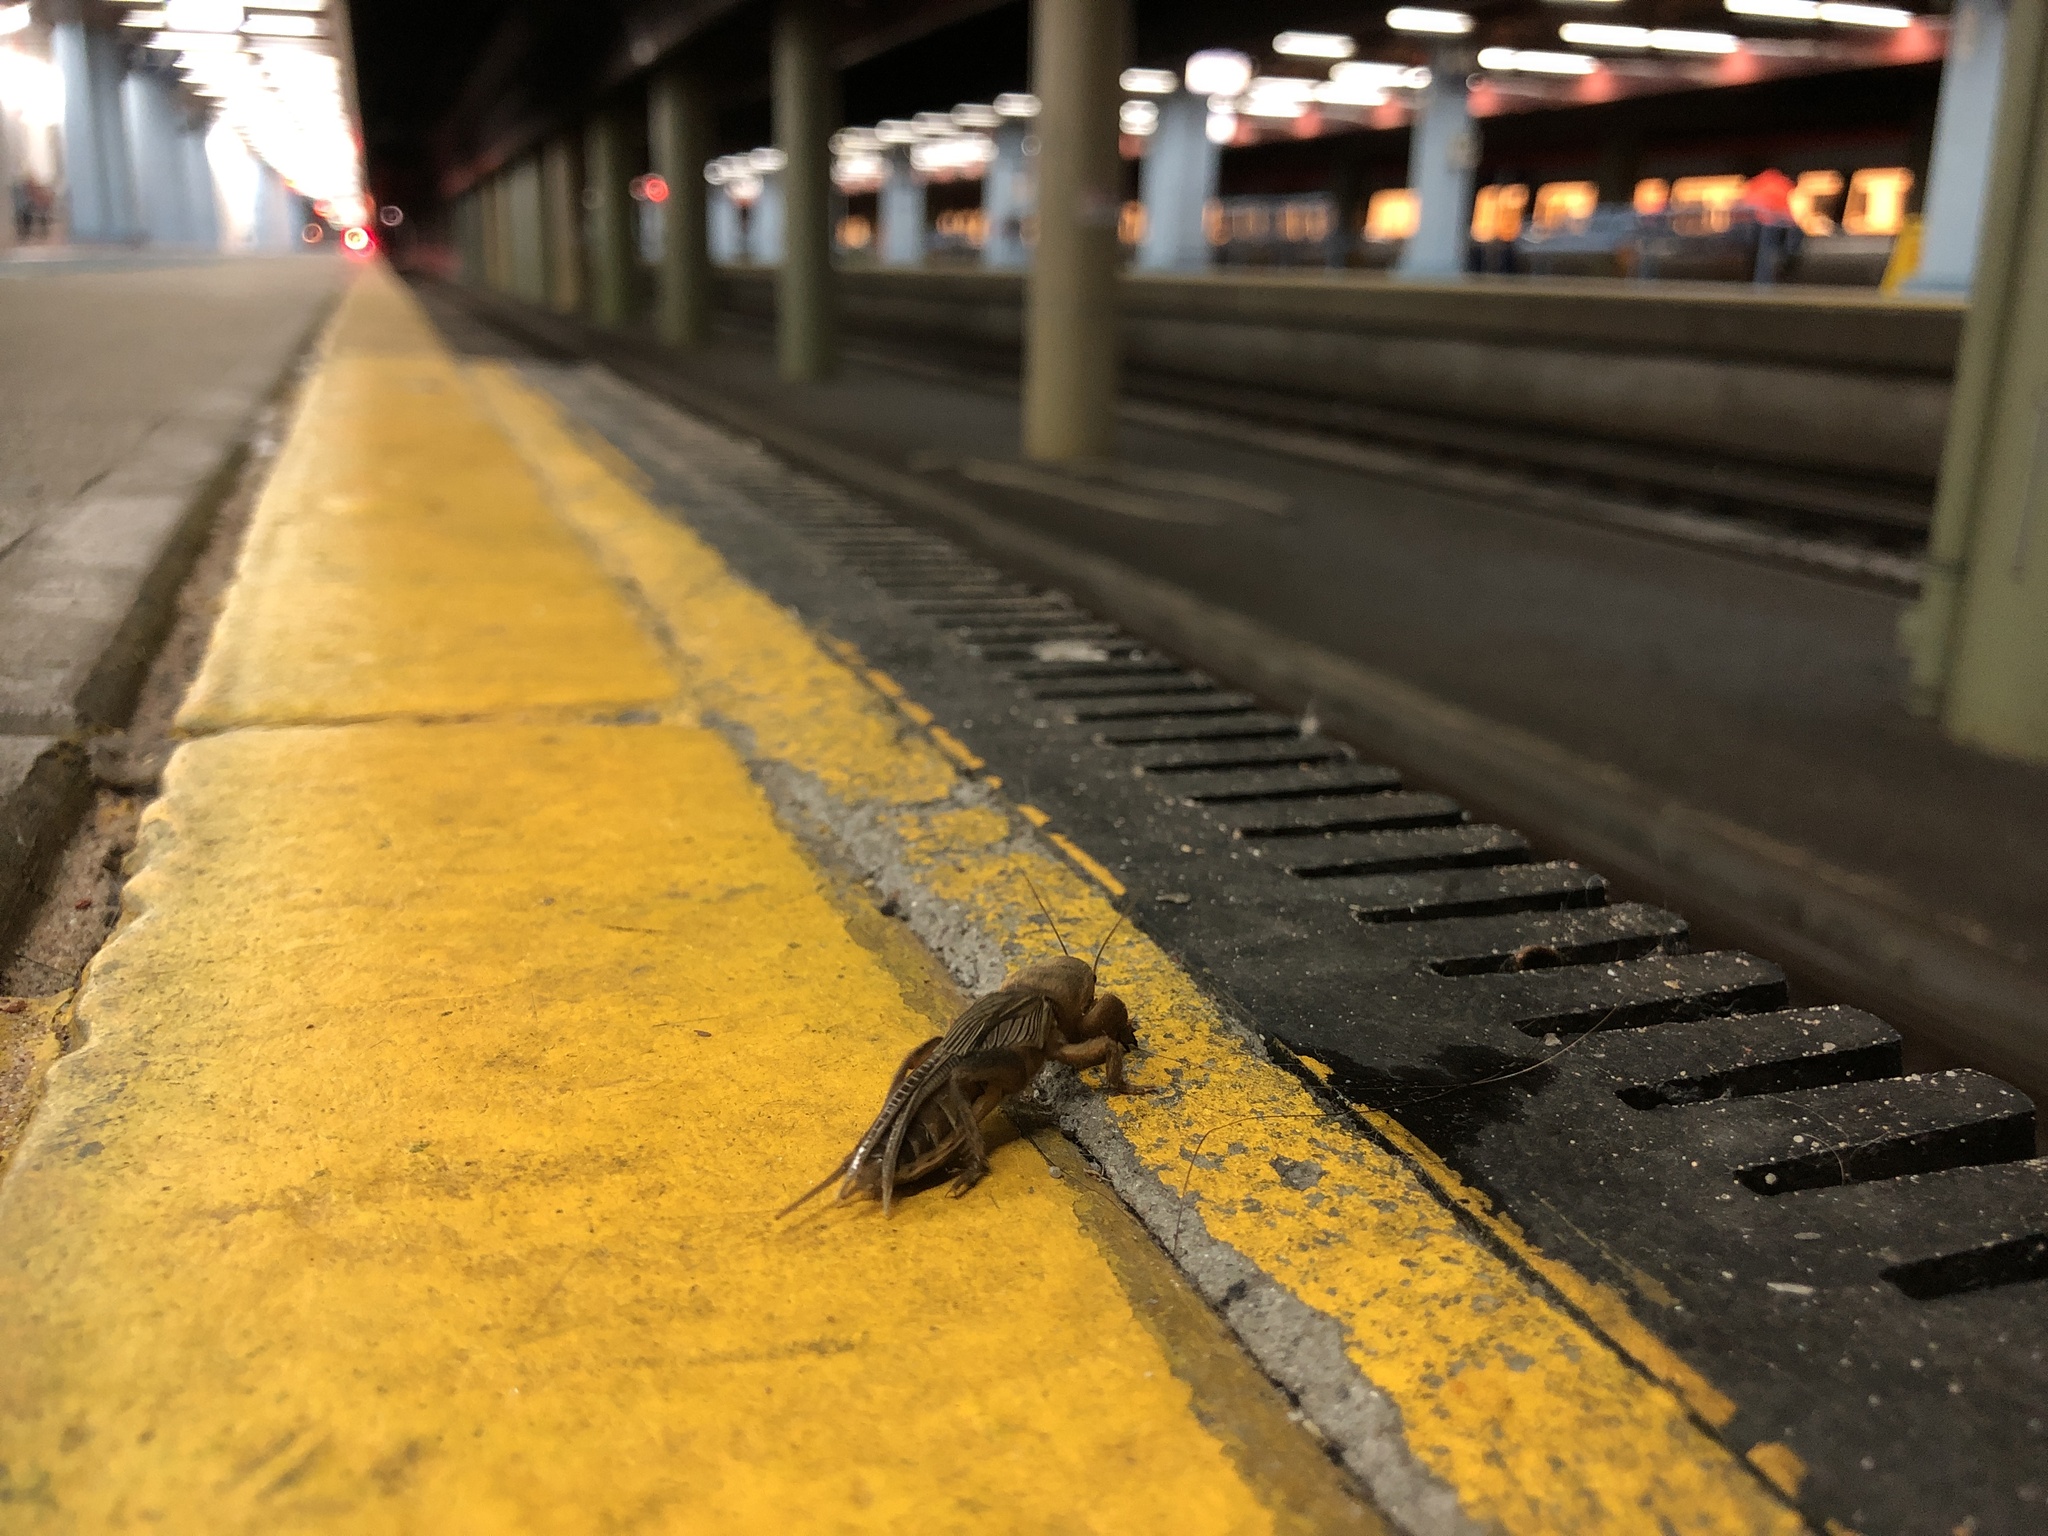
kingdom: Animalia
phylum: Arthropoda
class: Insecta
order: Orthoptera
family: Gryllotalpidae
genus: Gryllotalpa
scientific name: Gryllotalpa australis
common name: Southern mole cricket
